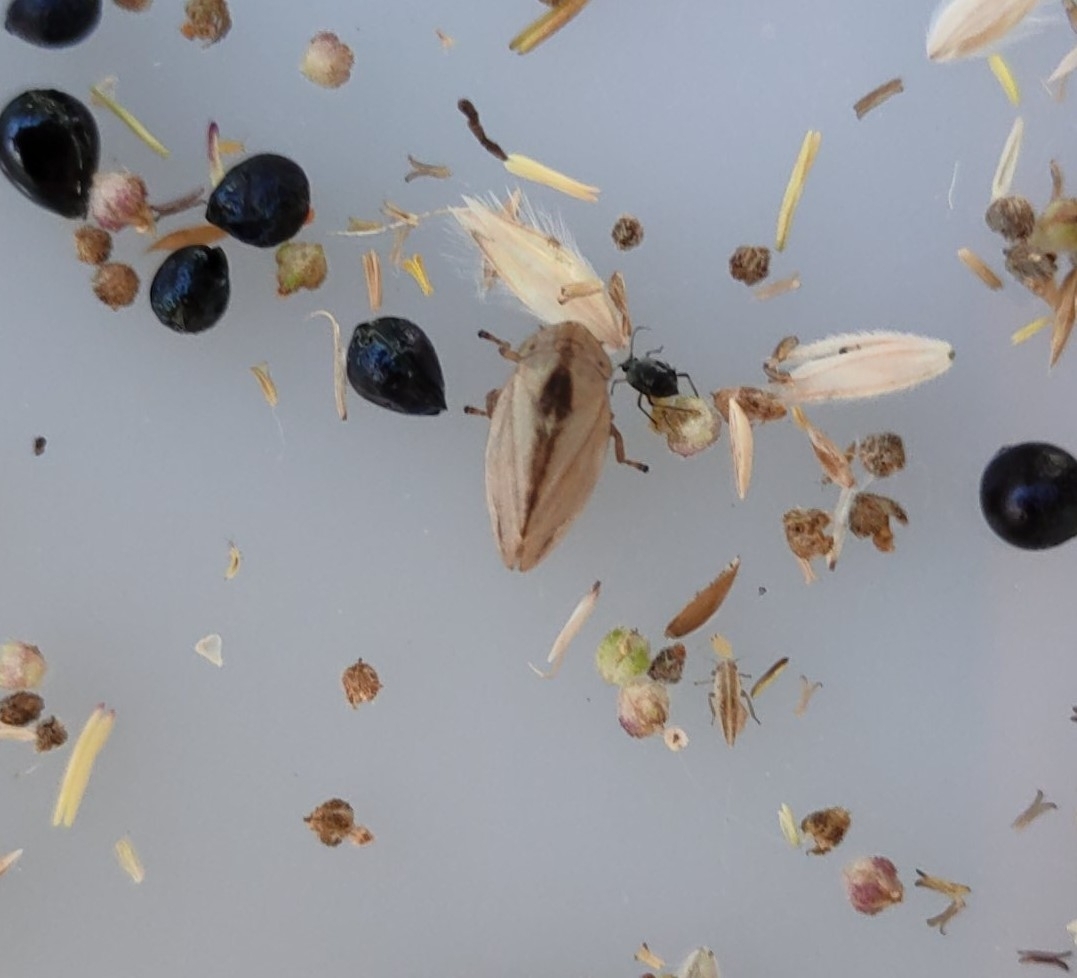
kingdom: Animalia
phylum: Arthropoda
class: Insecta
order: Hemiptera
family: Aphrophoridae
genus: Philaenus
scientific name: Philaenus spumarius
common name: Meadow spittlebug
